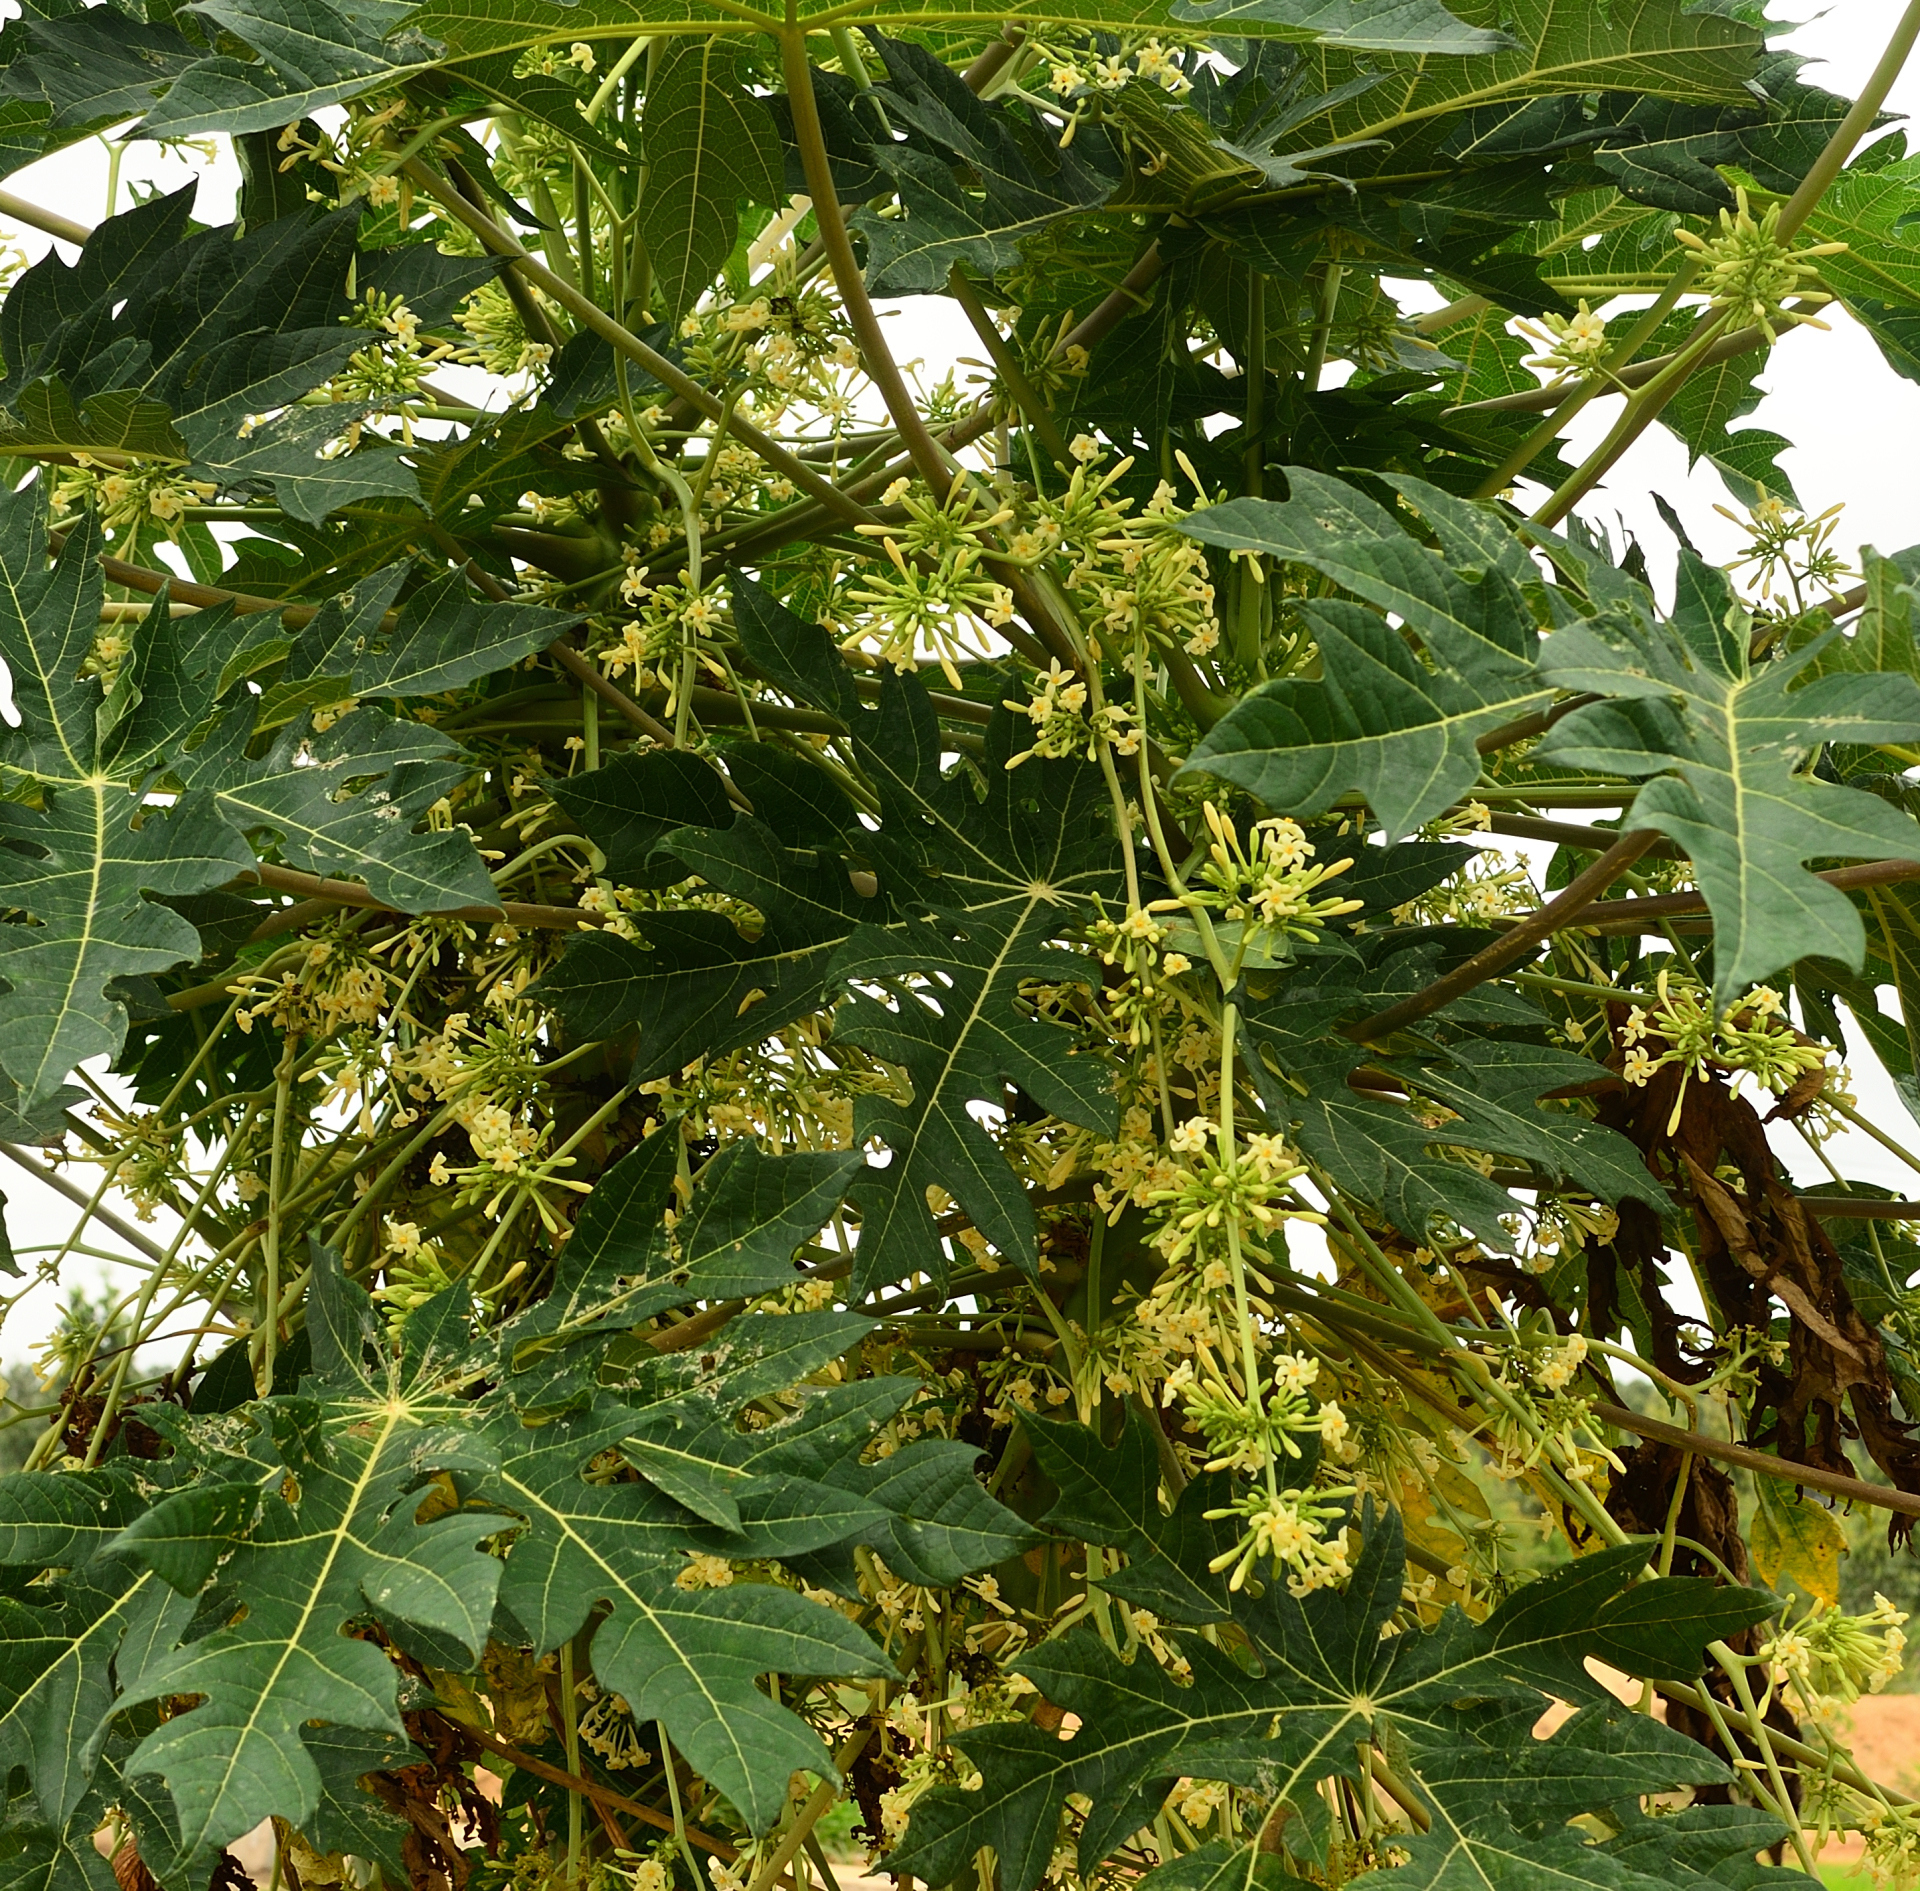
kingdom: Plantae
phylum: Tracheophyta
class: Magnoliopsida
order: Brassicales
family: Caricaceae
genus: Carica
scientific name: Carica papaya
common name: Papaya
